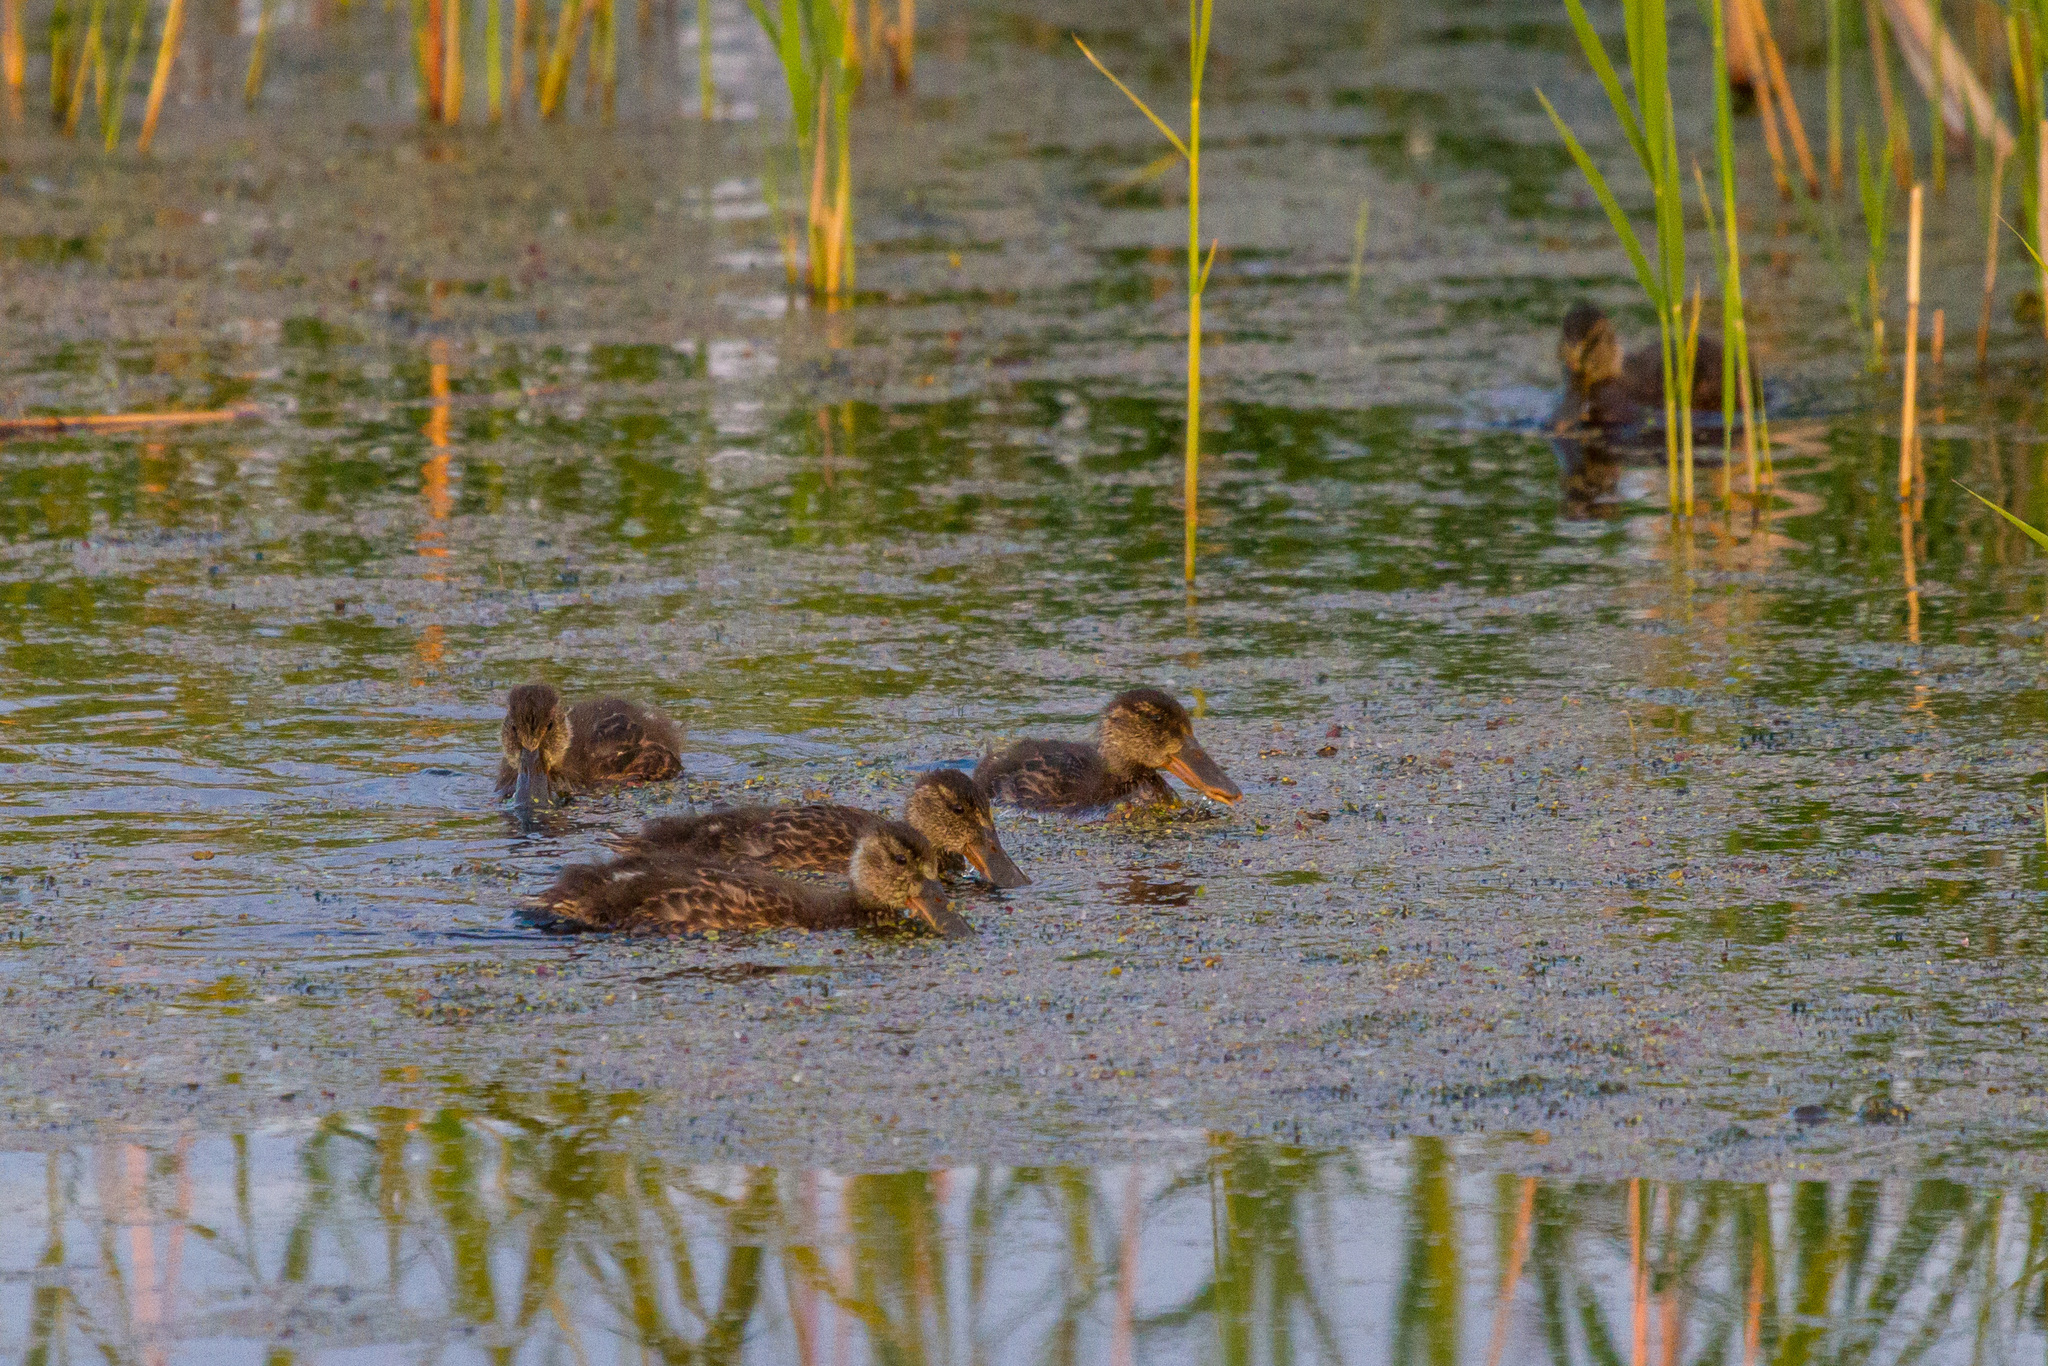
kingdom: Animalia
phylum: Chordata
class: Aves
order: Anseriformes
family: Anatidae
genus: Spatula
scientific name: Spatula clypeata
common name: Northern shoveler
